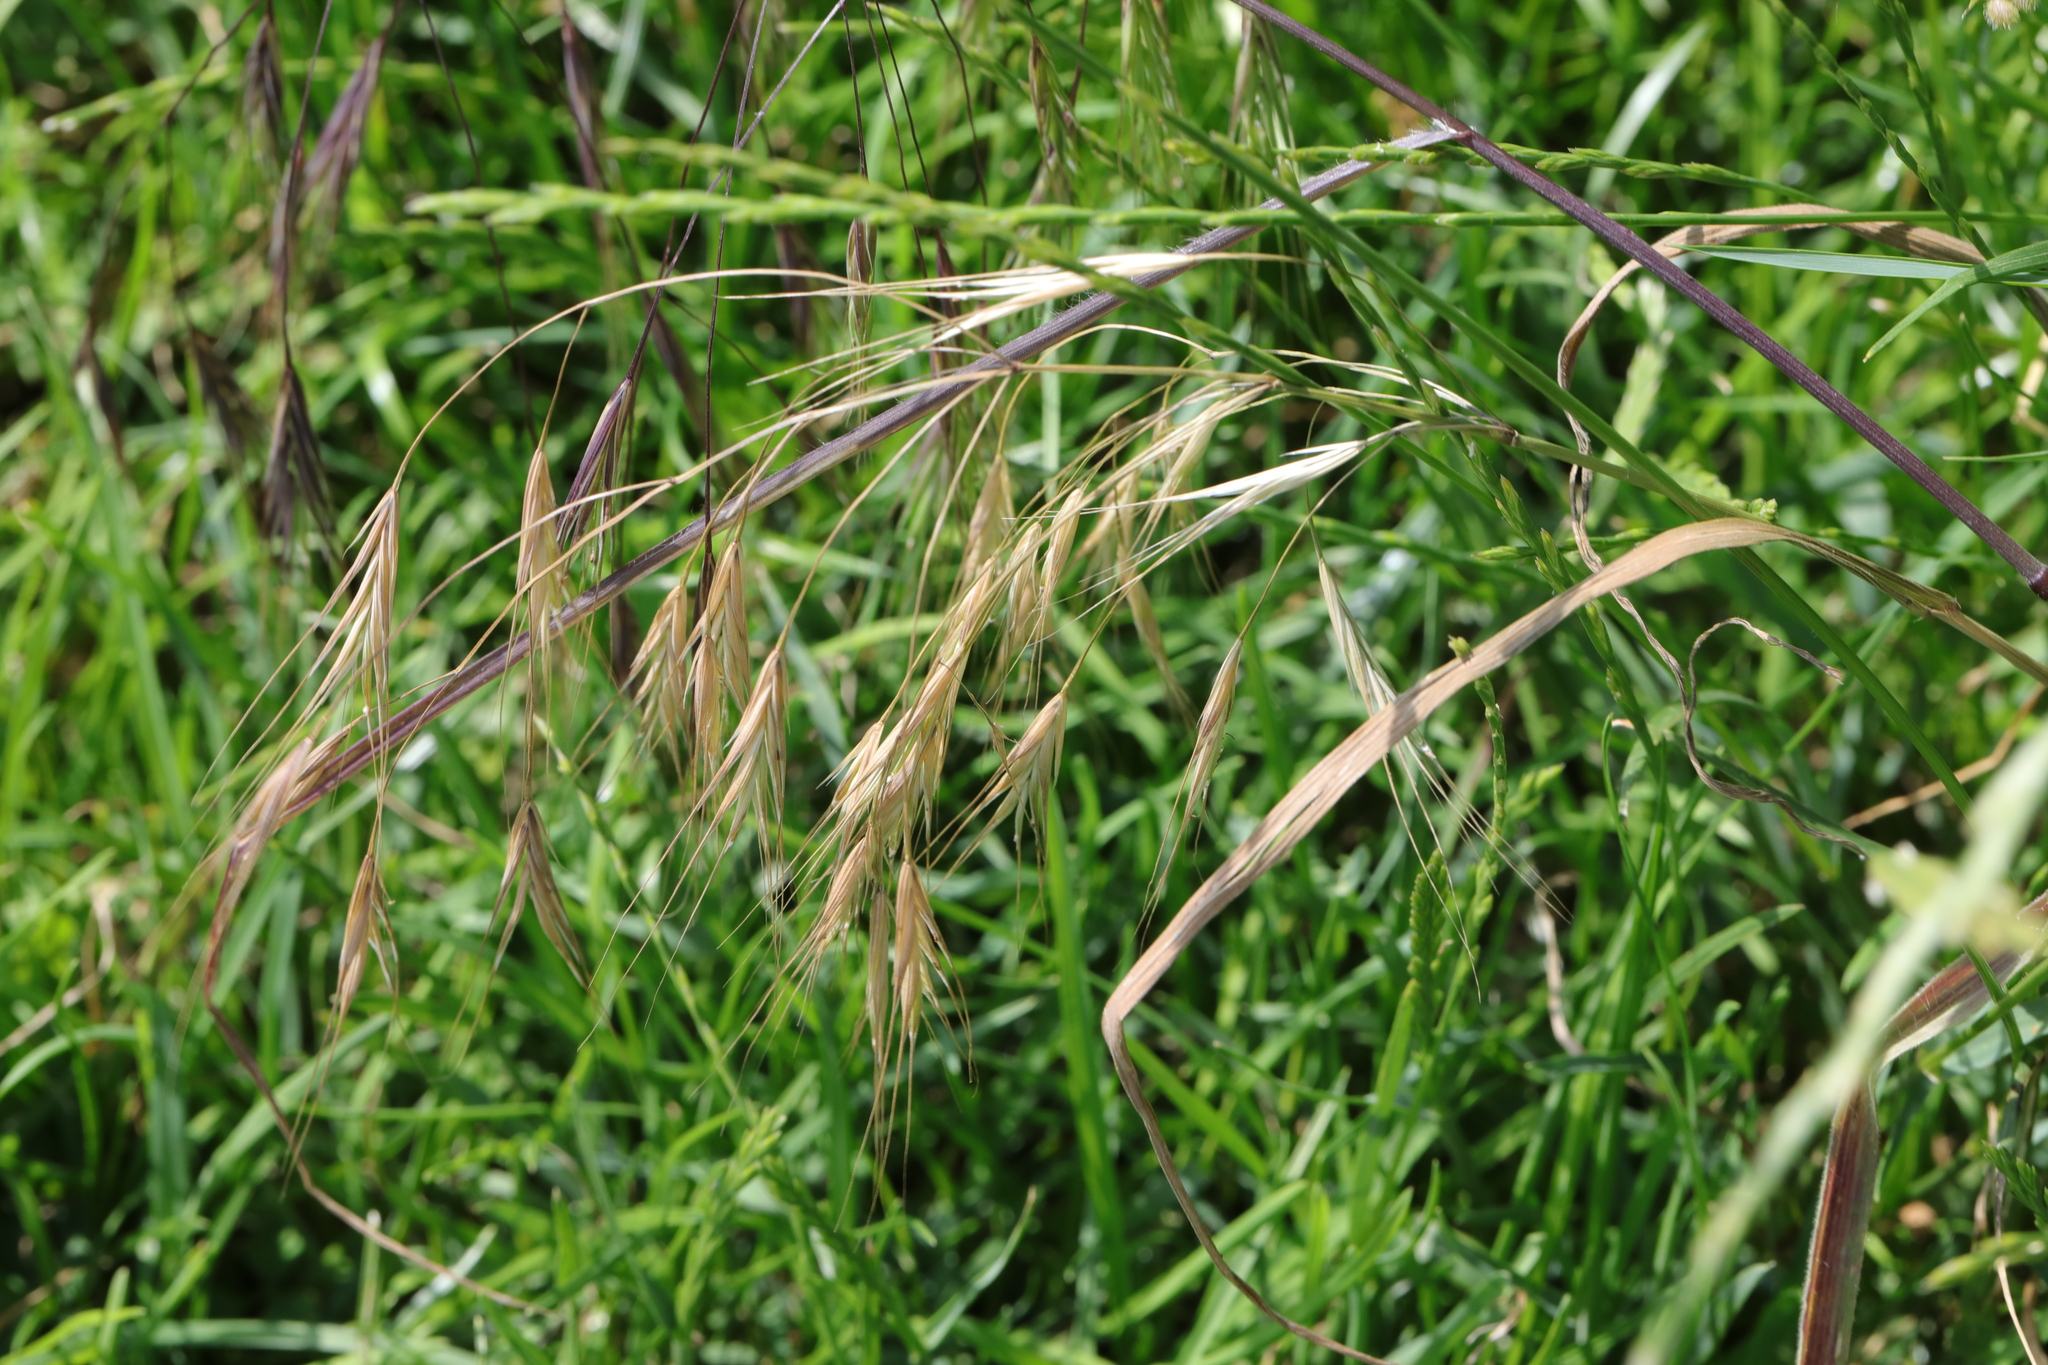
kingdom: Plantae
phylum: Tracheophyta
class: Liliopsida
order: Poales
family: Poaceae
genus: Bromus
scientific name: Bromus sterilis
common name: Poverty brome
